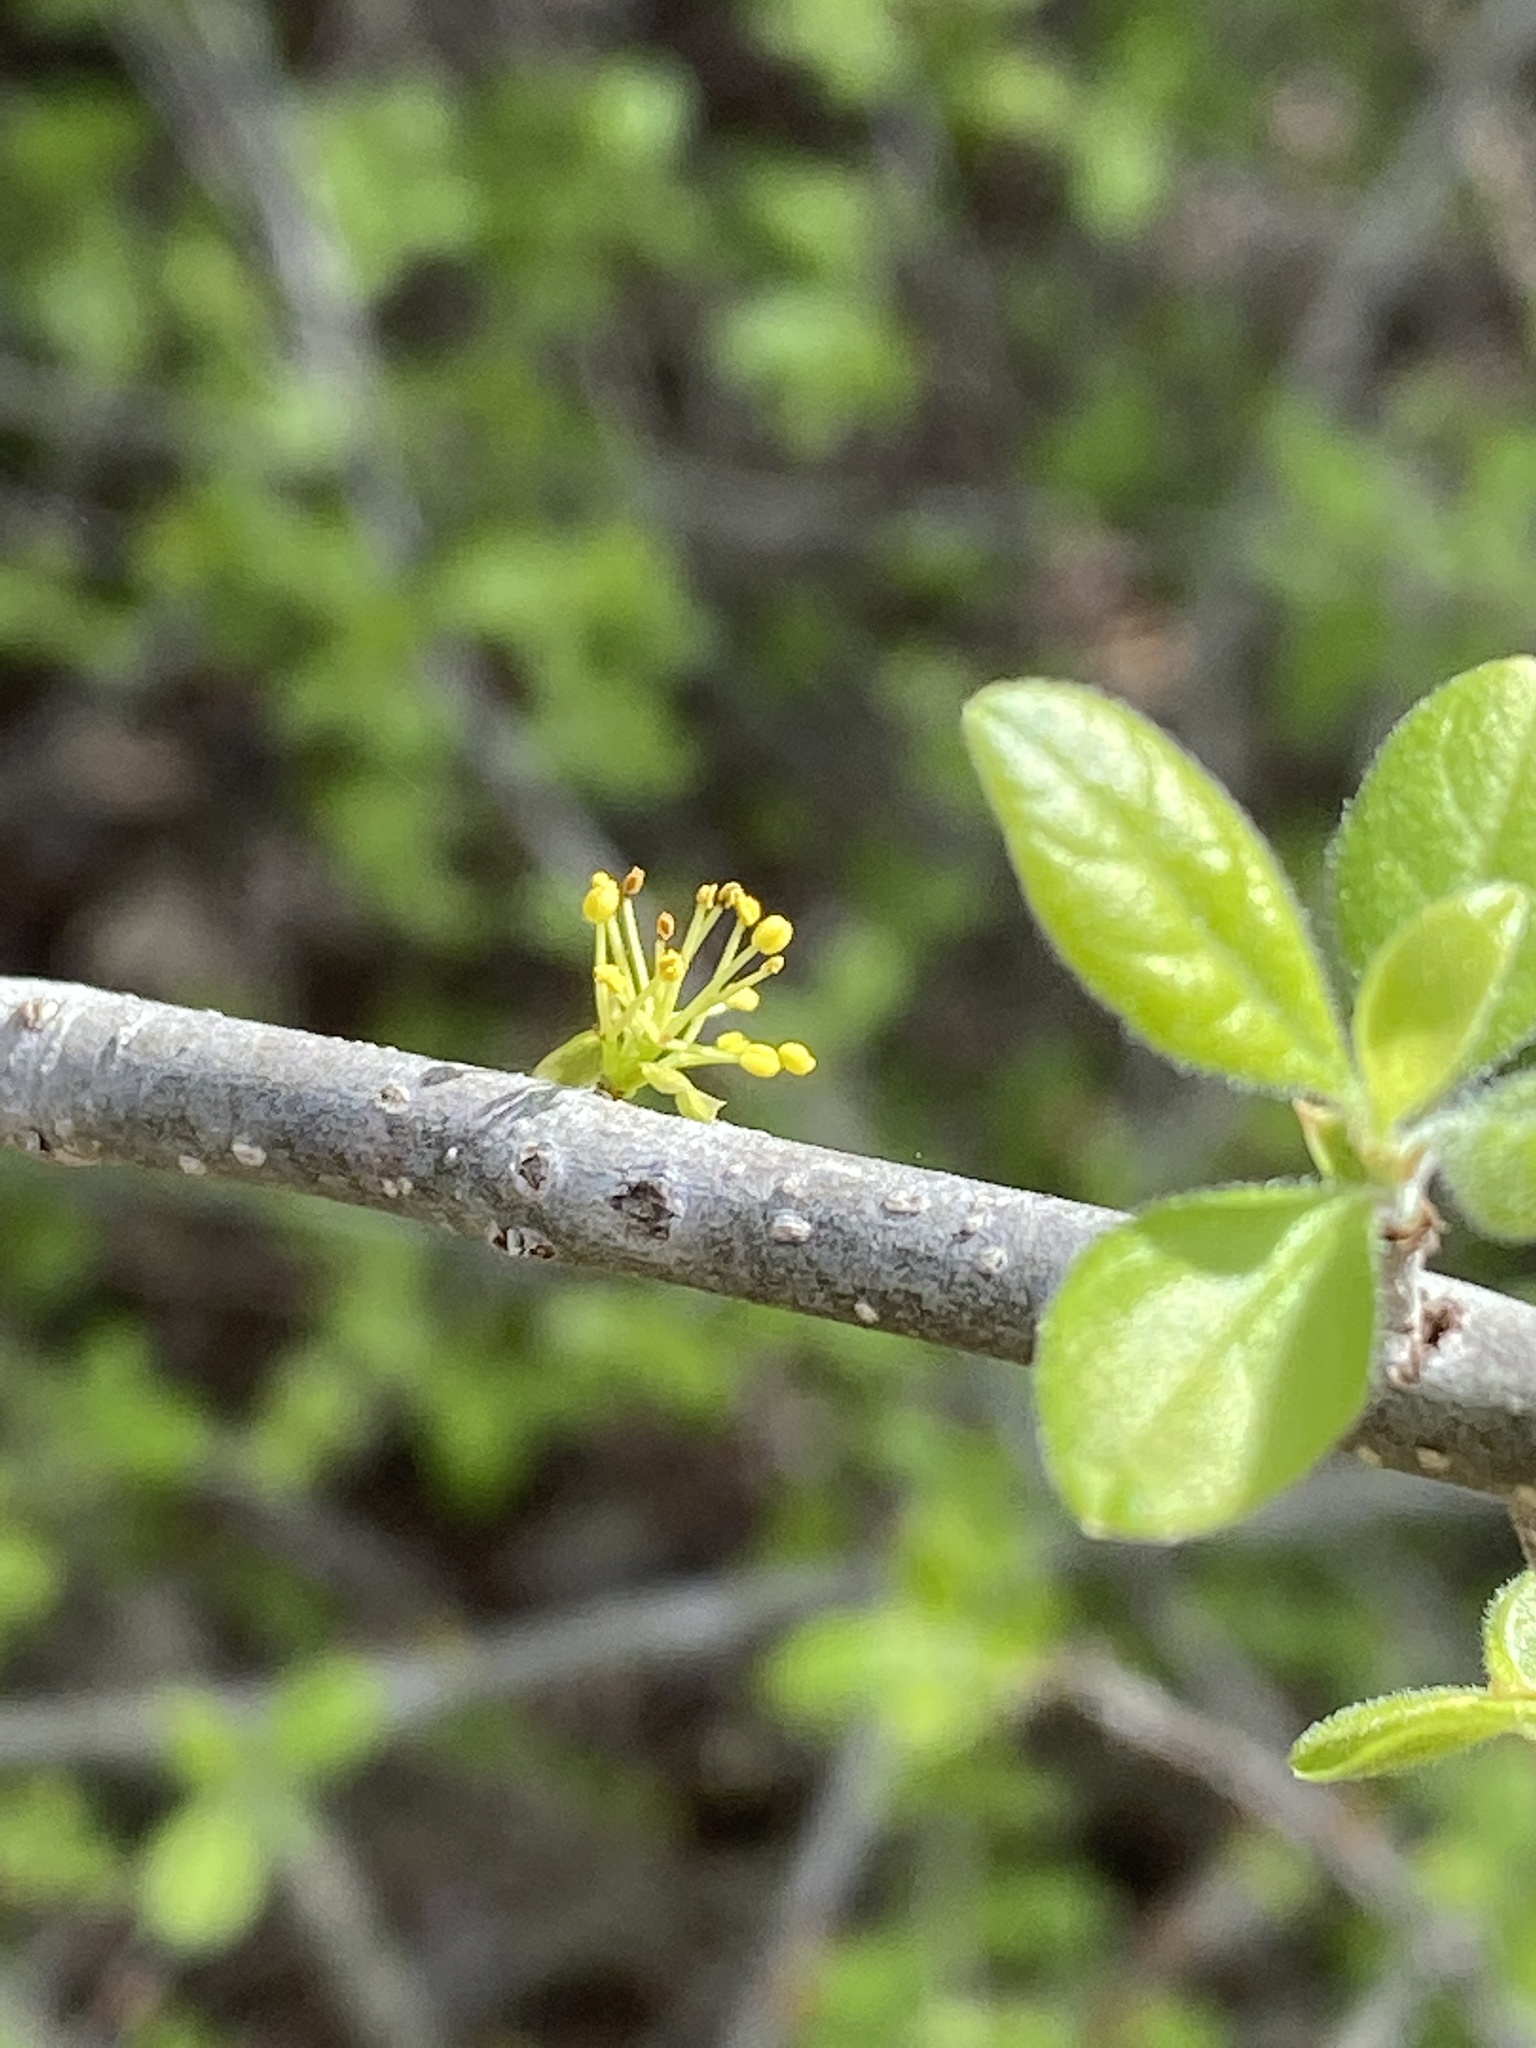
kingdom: Plantae
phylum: Tracheophyta
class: Magnoliopsida
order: Lamiales
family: Oleaceae
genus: Forestiera
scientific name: Forestiera pubescens
